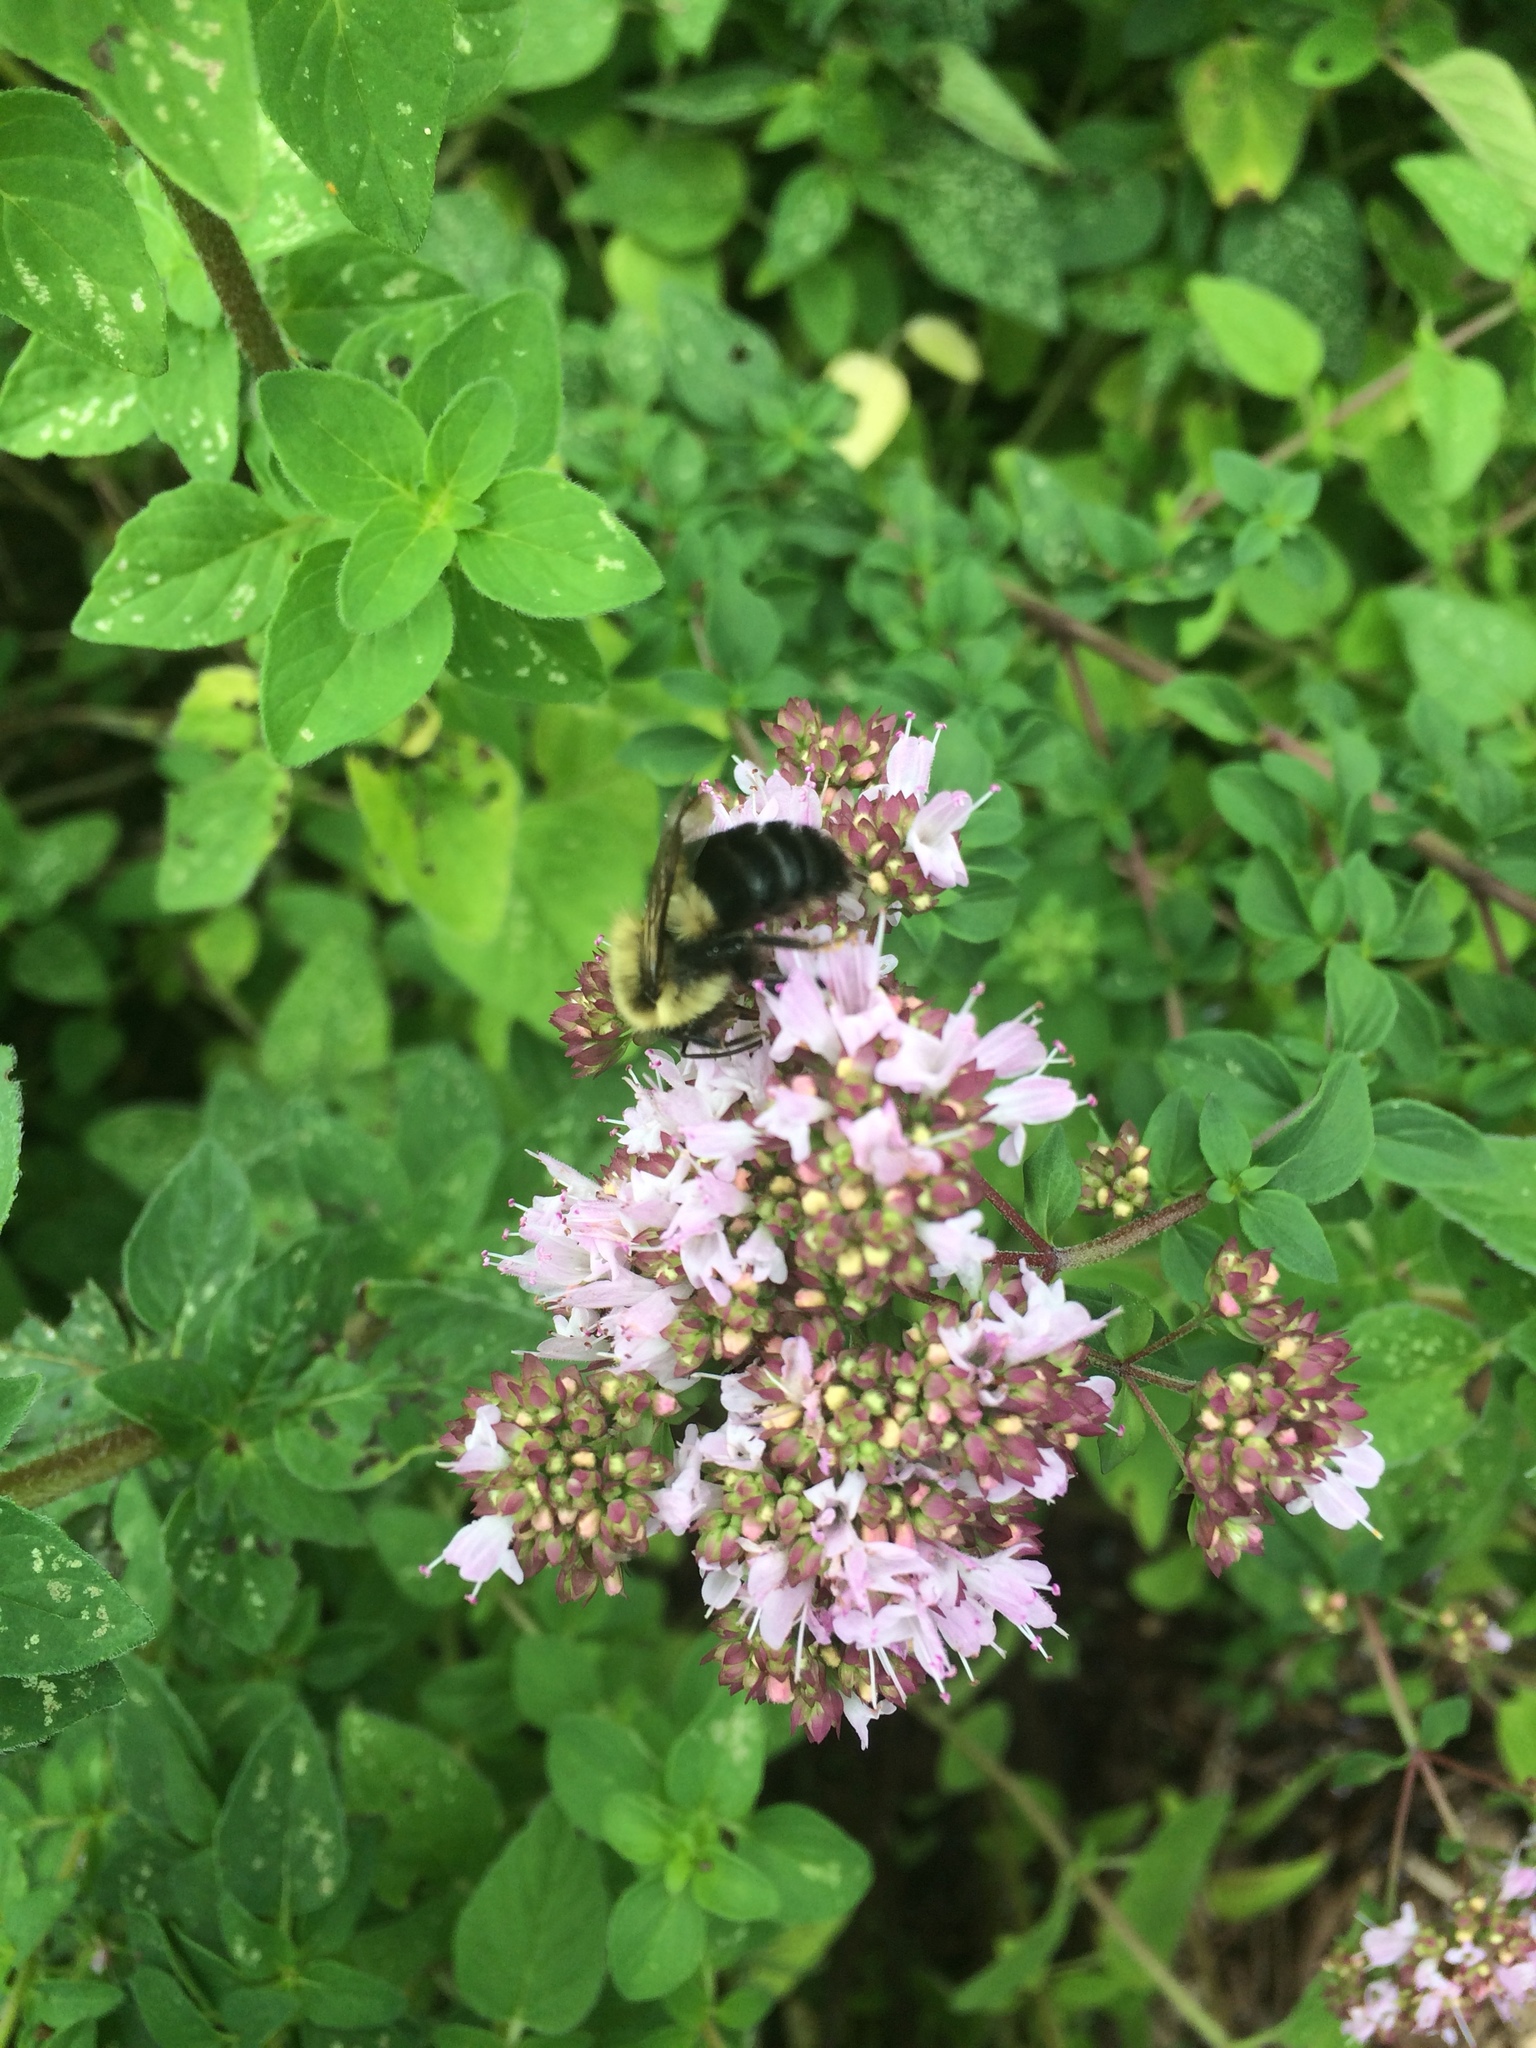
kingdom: Animalia
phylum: Arthropoda
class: Insecta
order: Hymenoptera
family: Apidae
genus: Bombus
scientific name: Bombus impatiens
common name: Common eastern bumble bee
